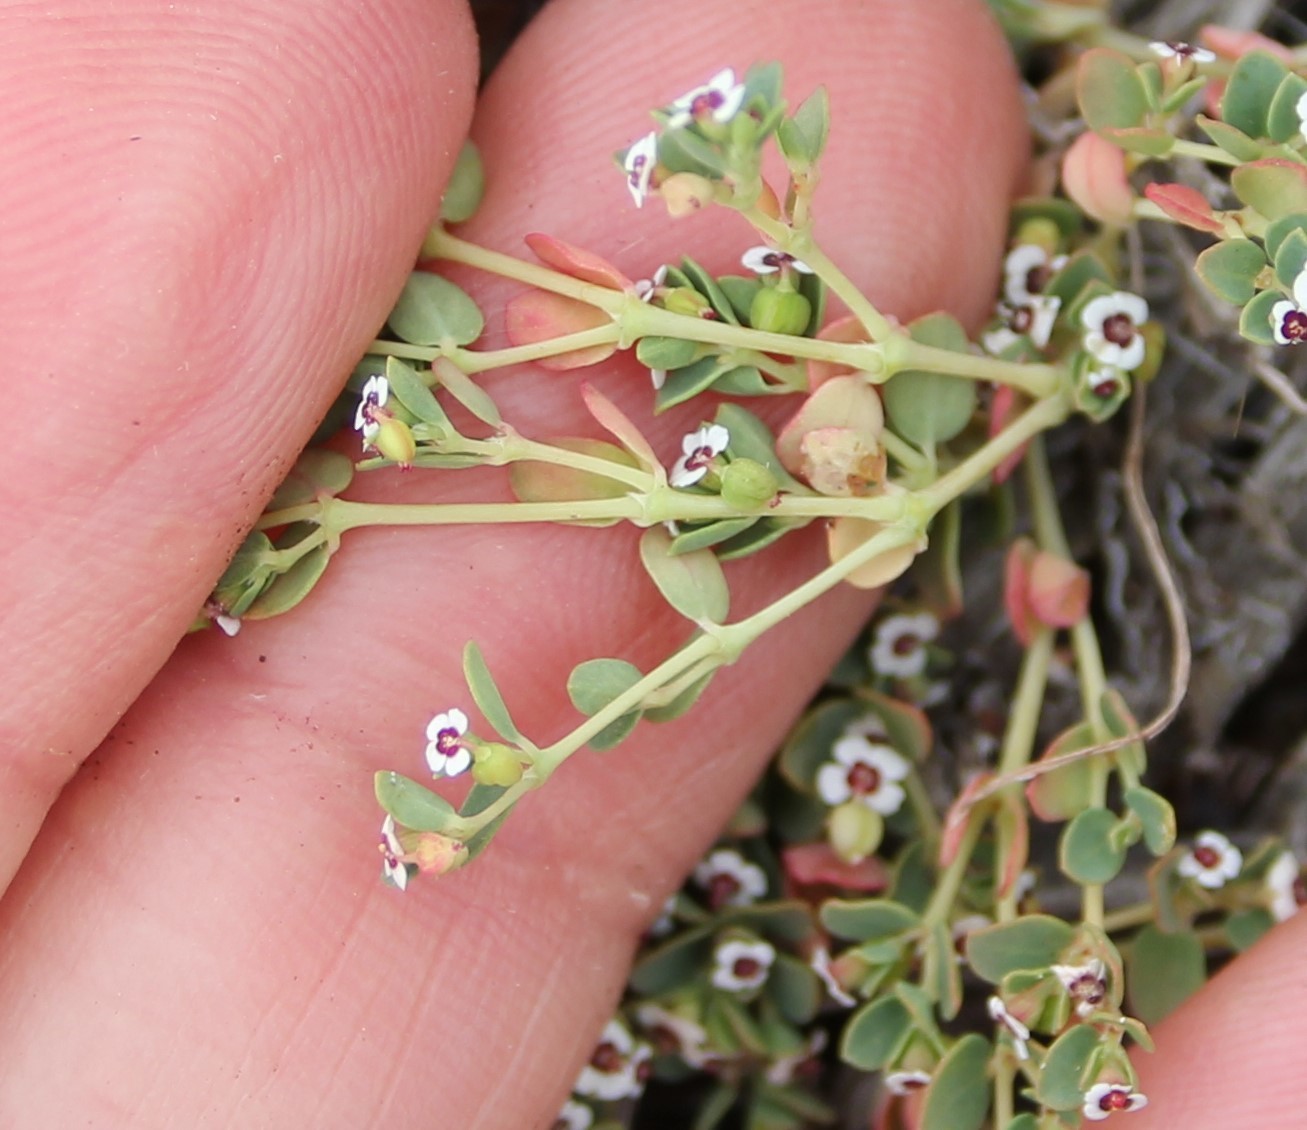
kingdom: Plantae
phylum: Tracheophyta
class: Magnoliopsida
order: Malpighiales
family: Euphorbiaceae
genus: Euphorbia
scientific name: Euphorbia polycarpa
